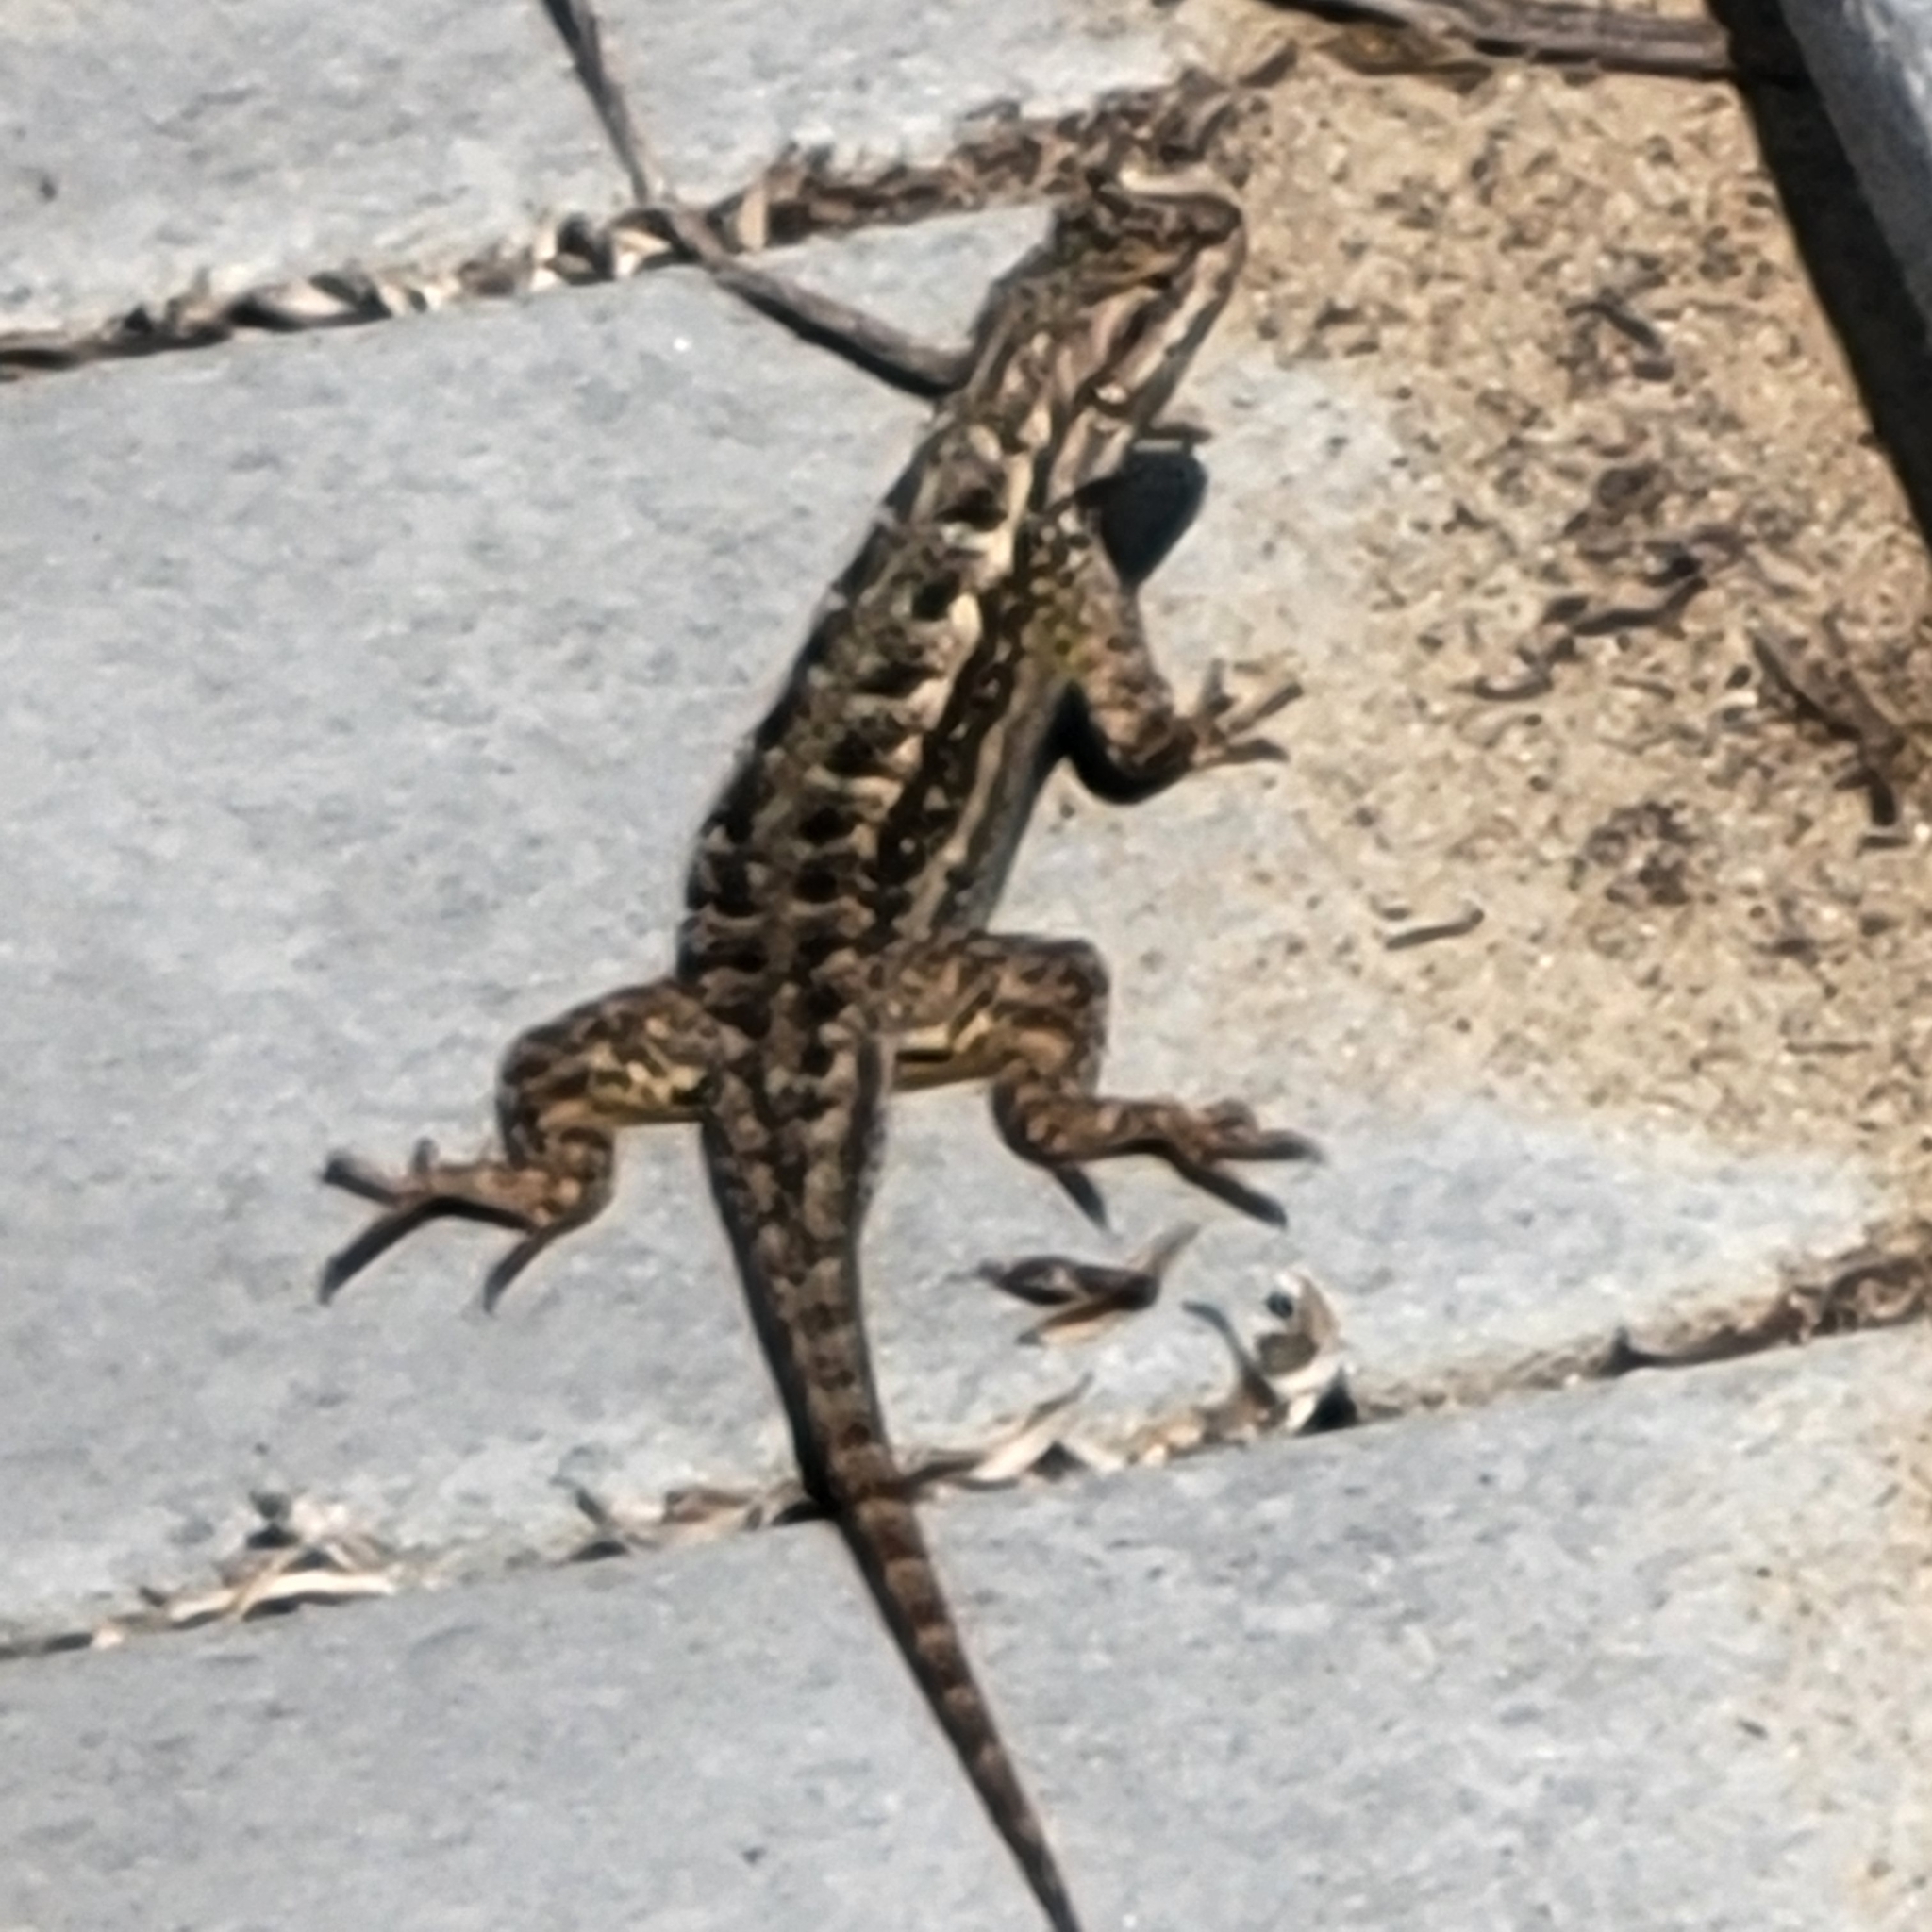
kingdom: Animalia
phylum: Chordata
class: Squamata
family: Phrynosomatidae
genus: Sceloporus
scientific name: Sceloporus occidentalis
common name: Western fence lizard
